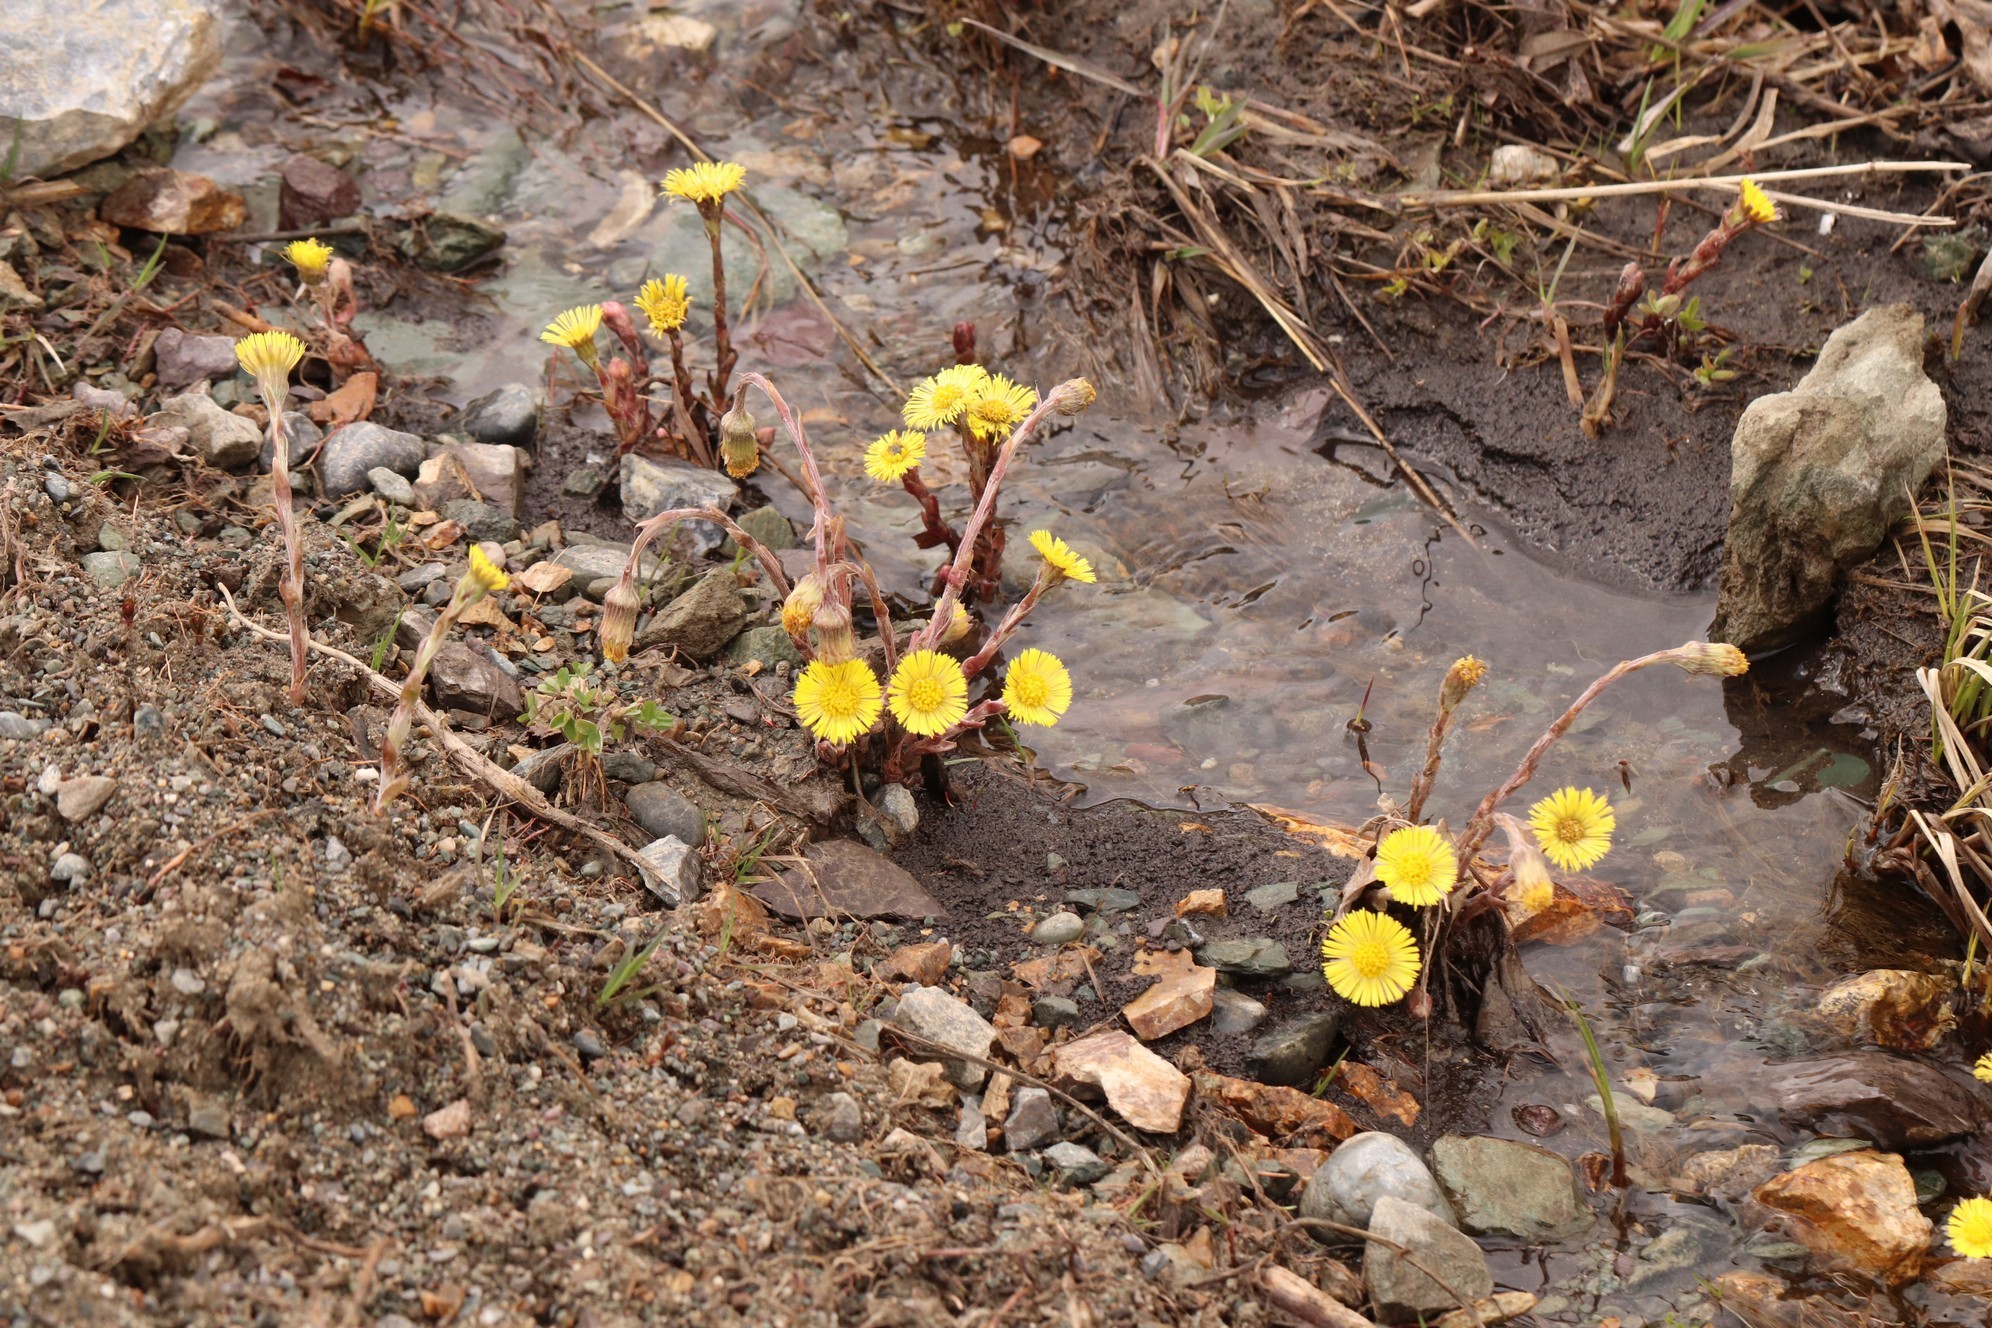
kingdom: Plantae
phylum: Tracheophyta
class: Magnoliopsida
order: Asterales
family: Asteraceae
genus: Tussilago
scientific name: Tussilago farfara
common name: Coltsfoot
